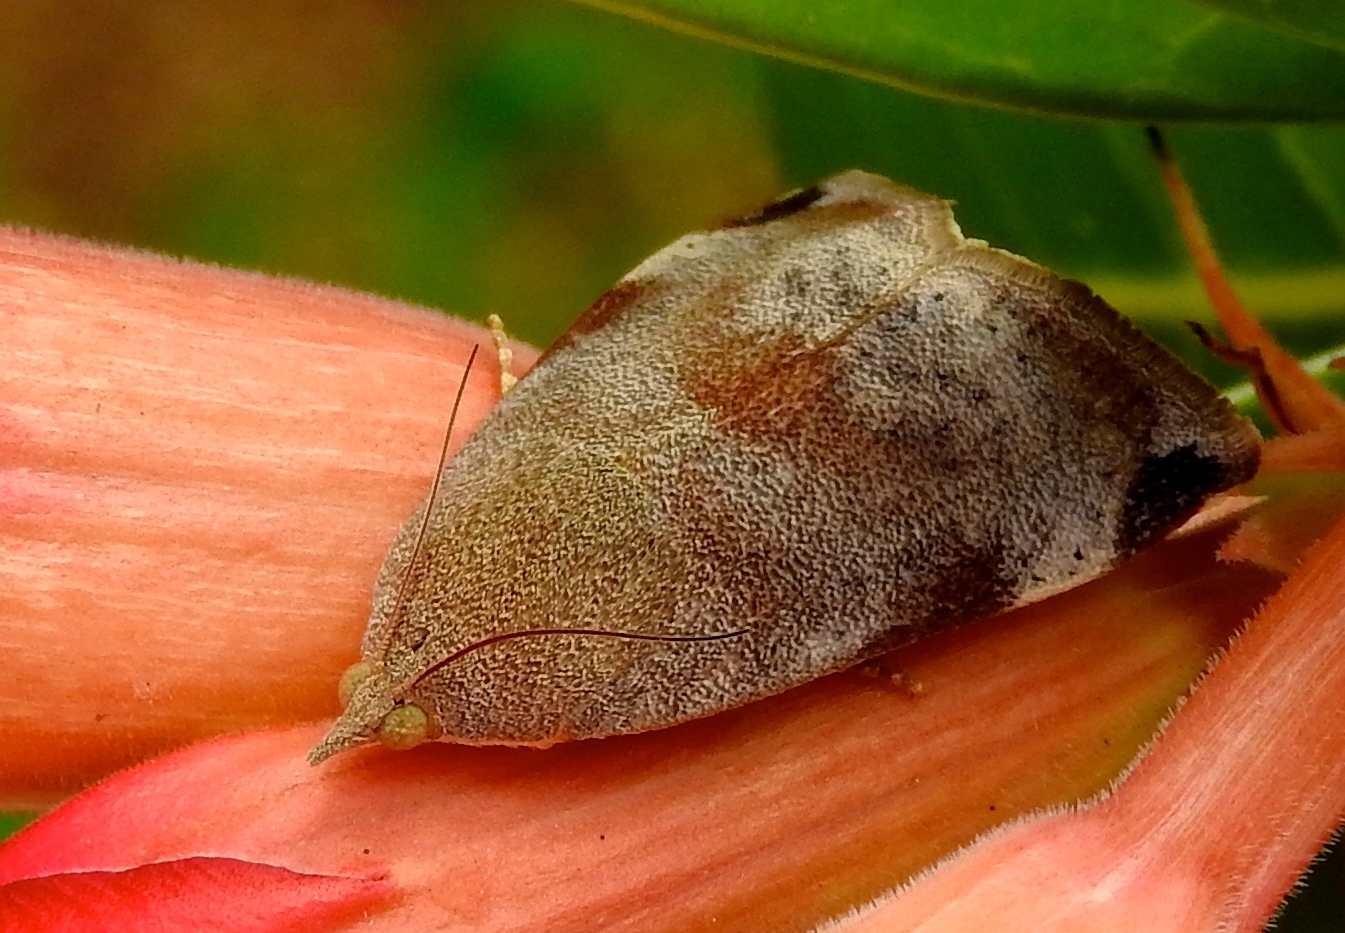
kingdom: Animalia
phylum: Arthropoda
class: Insecta
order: Lepidoptera
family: Hyblaeidae
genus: Hyblaea
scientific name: Hyblaea
